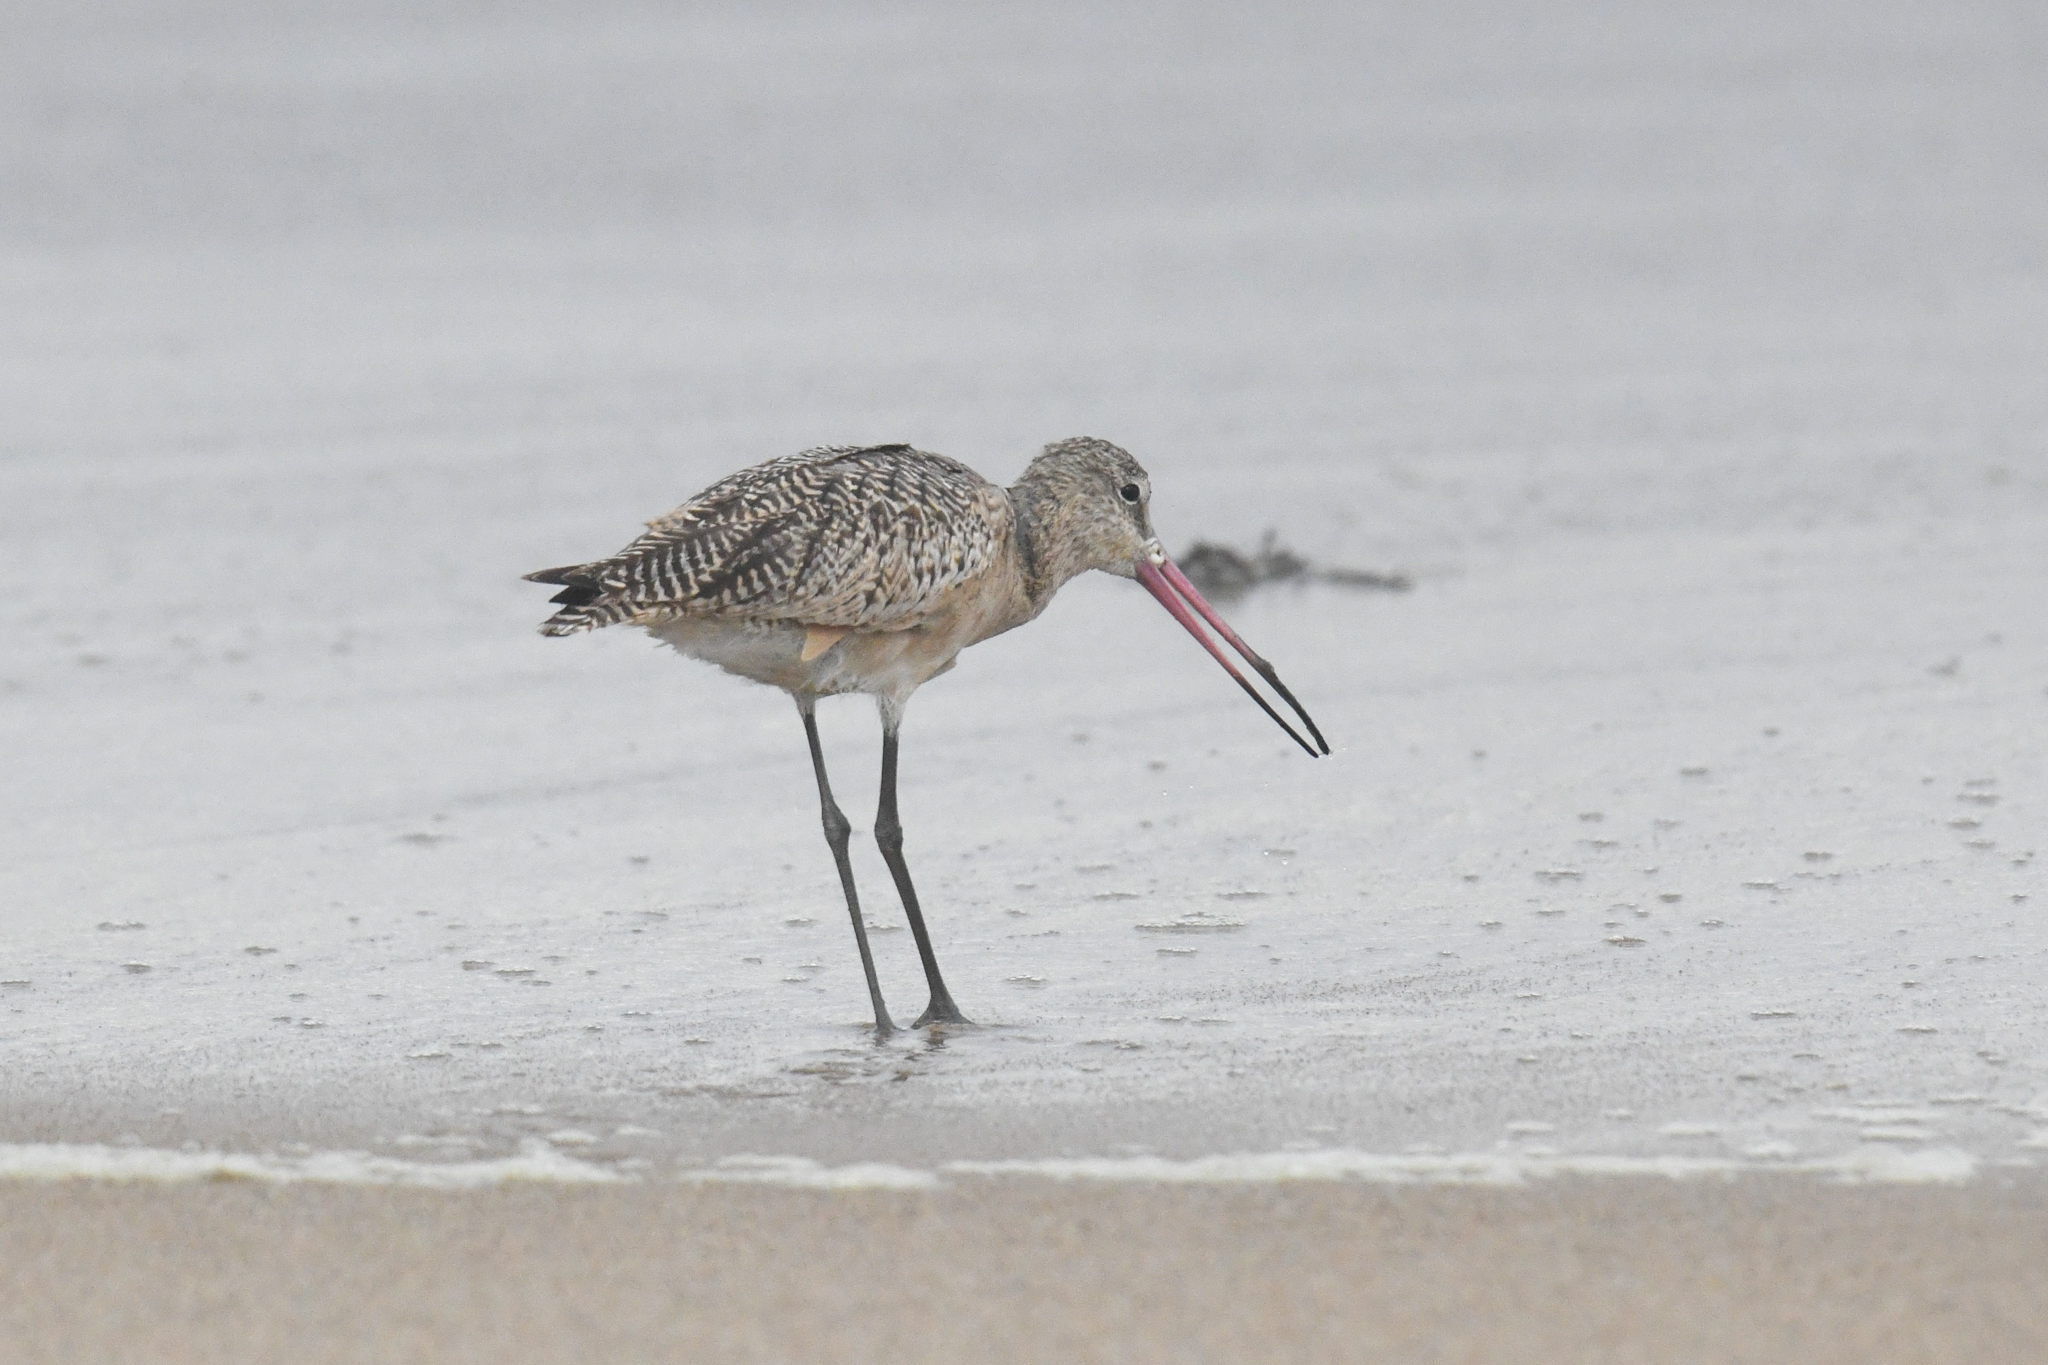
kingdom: Animalia
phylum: Chordata
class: Aves
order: Charadriiformes
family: Scolopacidae
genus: Limosa
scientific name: Limosa fedoa
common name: Marbled godwit
